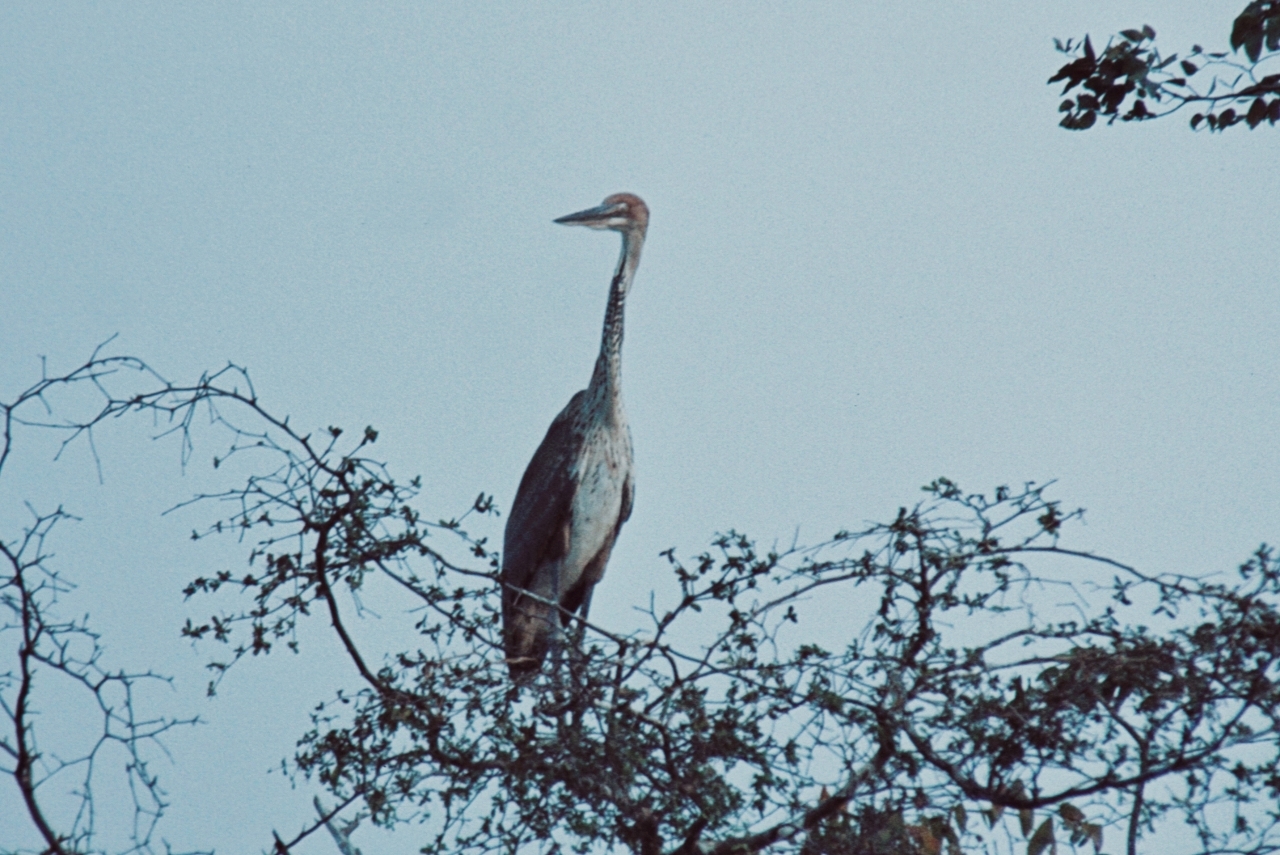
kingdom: Animalia
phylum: Chordata
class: Aves
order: Pelecaniformes
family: Ardeidae
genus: Ardea
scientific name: Ardea goliath
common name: Goliath heron
